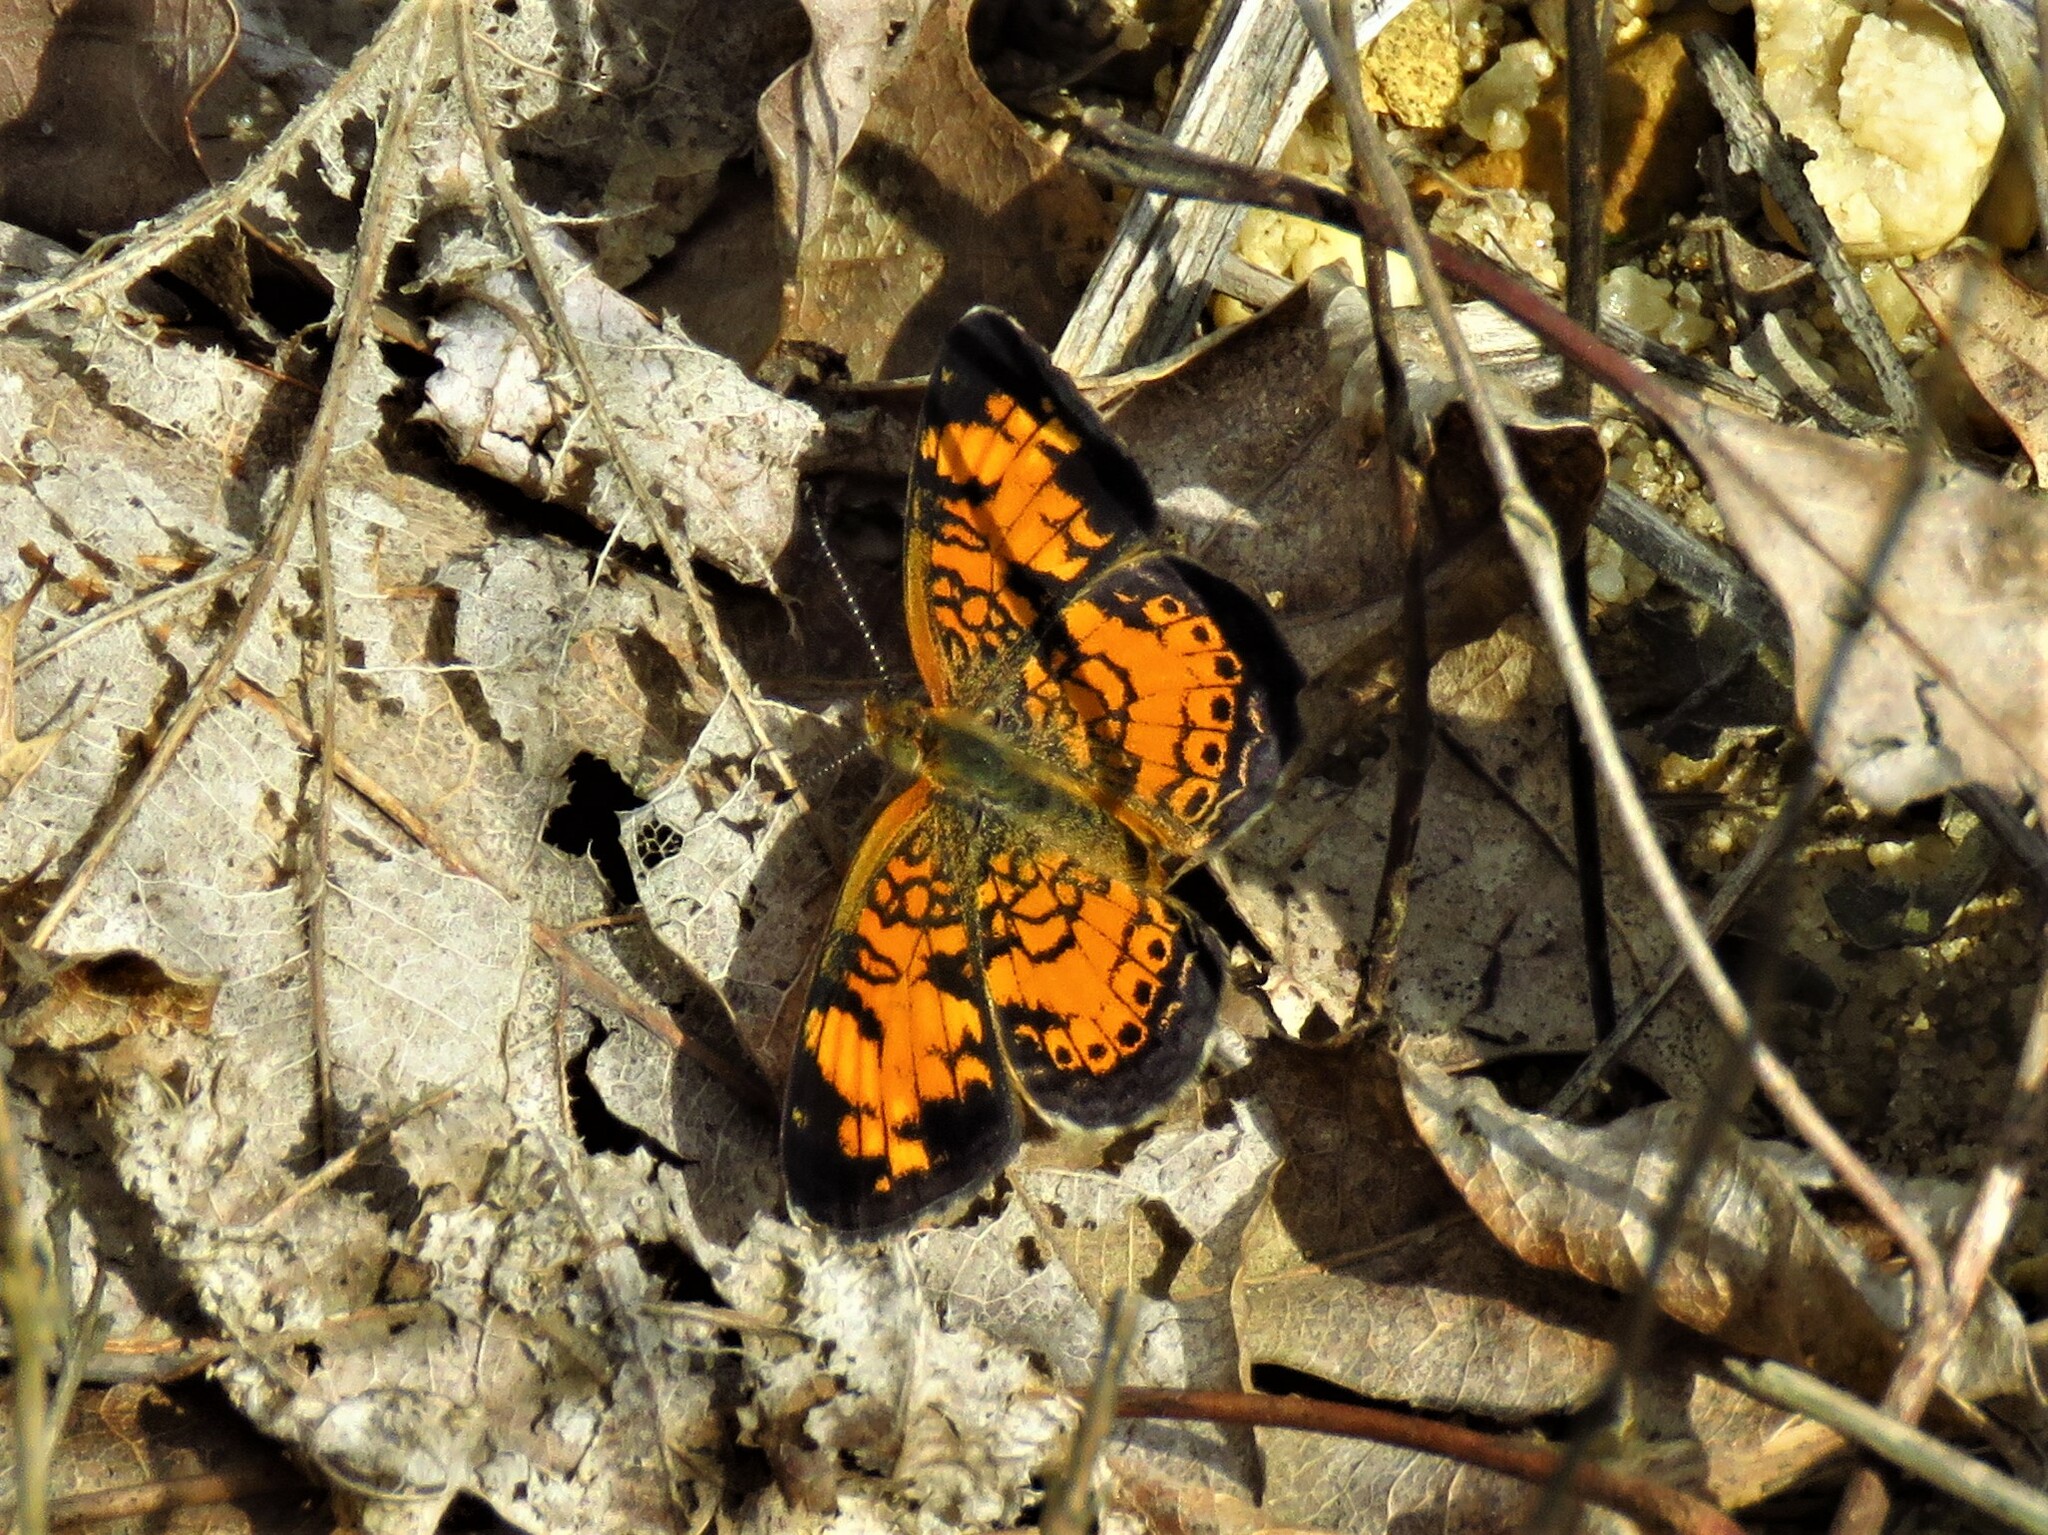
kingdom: Animalia
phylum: Arthropoda
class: Insecta
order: Lepidoptera
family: Nymphalidae
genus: Phyciodes
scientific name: Phyciodes tharos
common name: Pearl crescent
